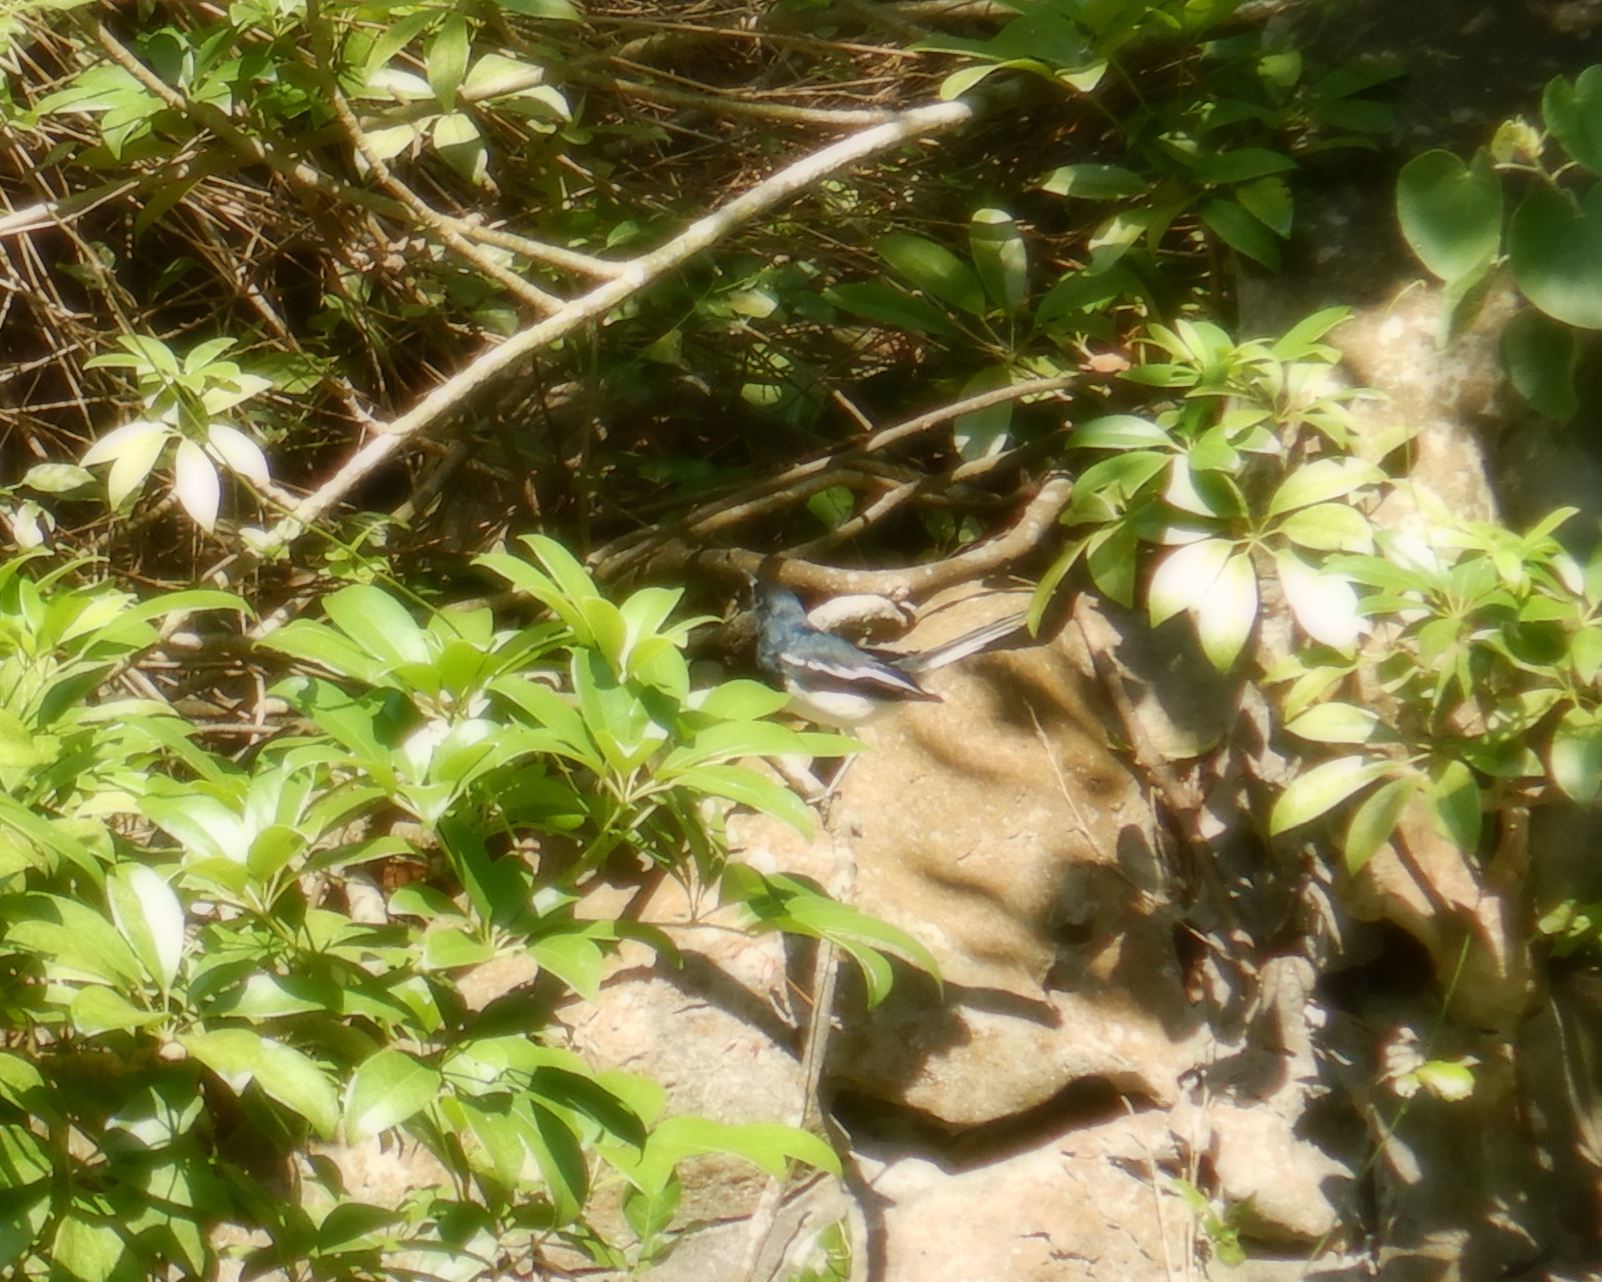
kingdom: Animalia
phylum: Chordata
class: Aves
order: Passeriformes
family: Muscicapidae
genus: Copsychus
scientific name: Copsychus saularis
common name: Oriental magpie-robin
